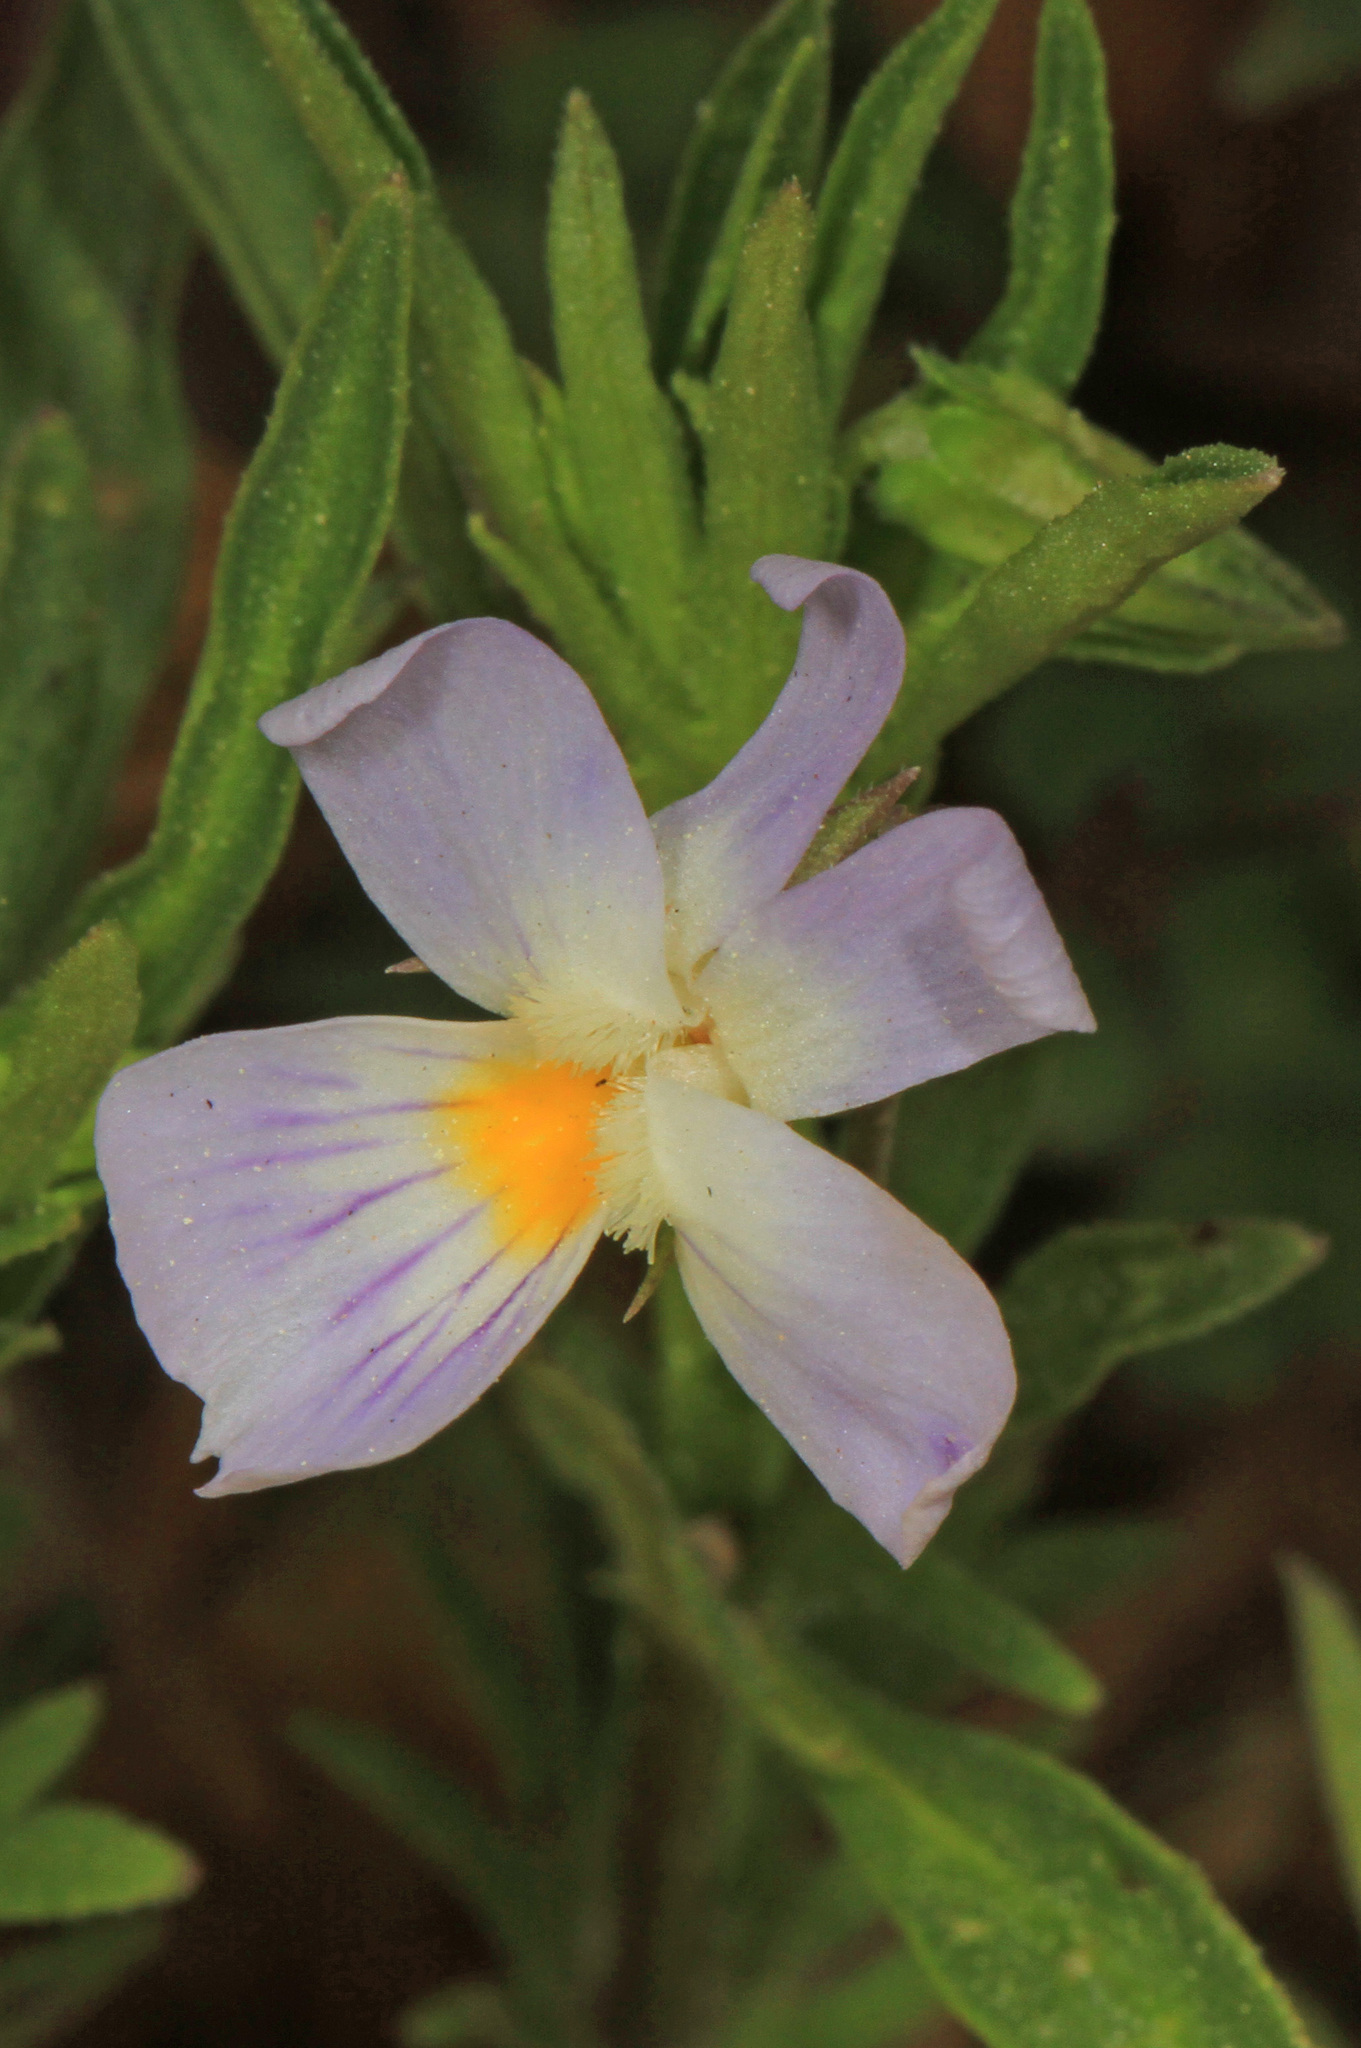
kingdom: Plantae
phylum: Tracheophyta
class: Magnoliopsida
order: Malpighiales
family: Violaceae
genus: Viola
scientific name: Viola rafinesquei
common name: American field pansy
